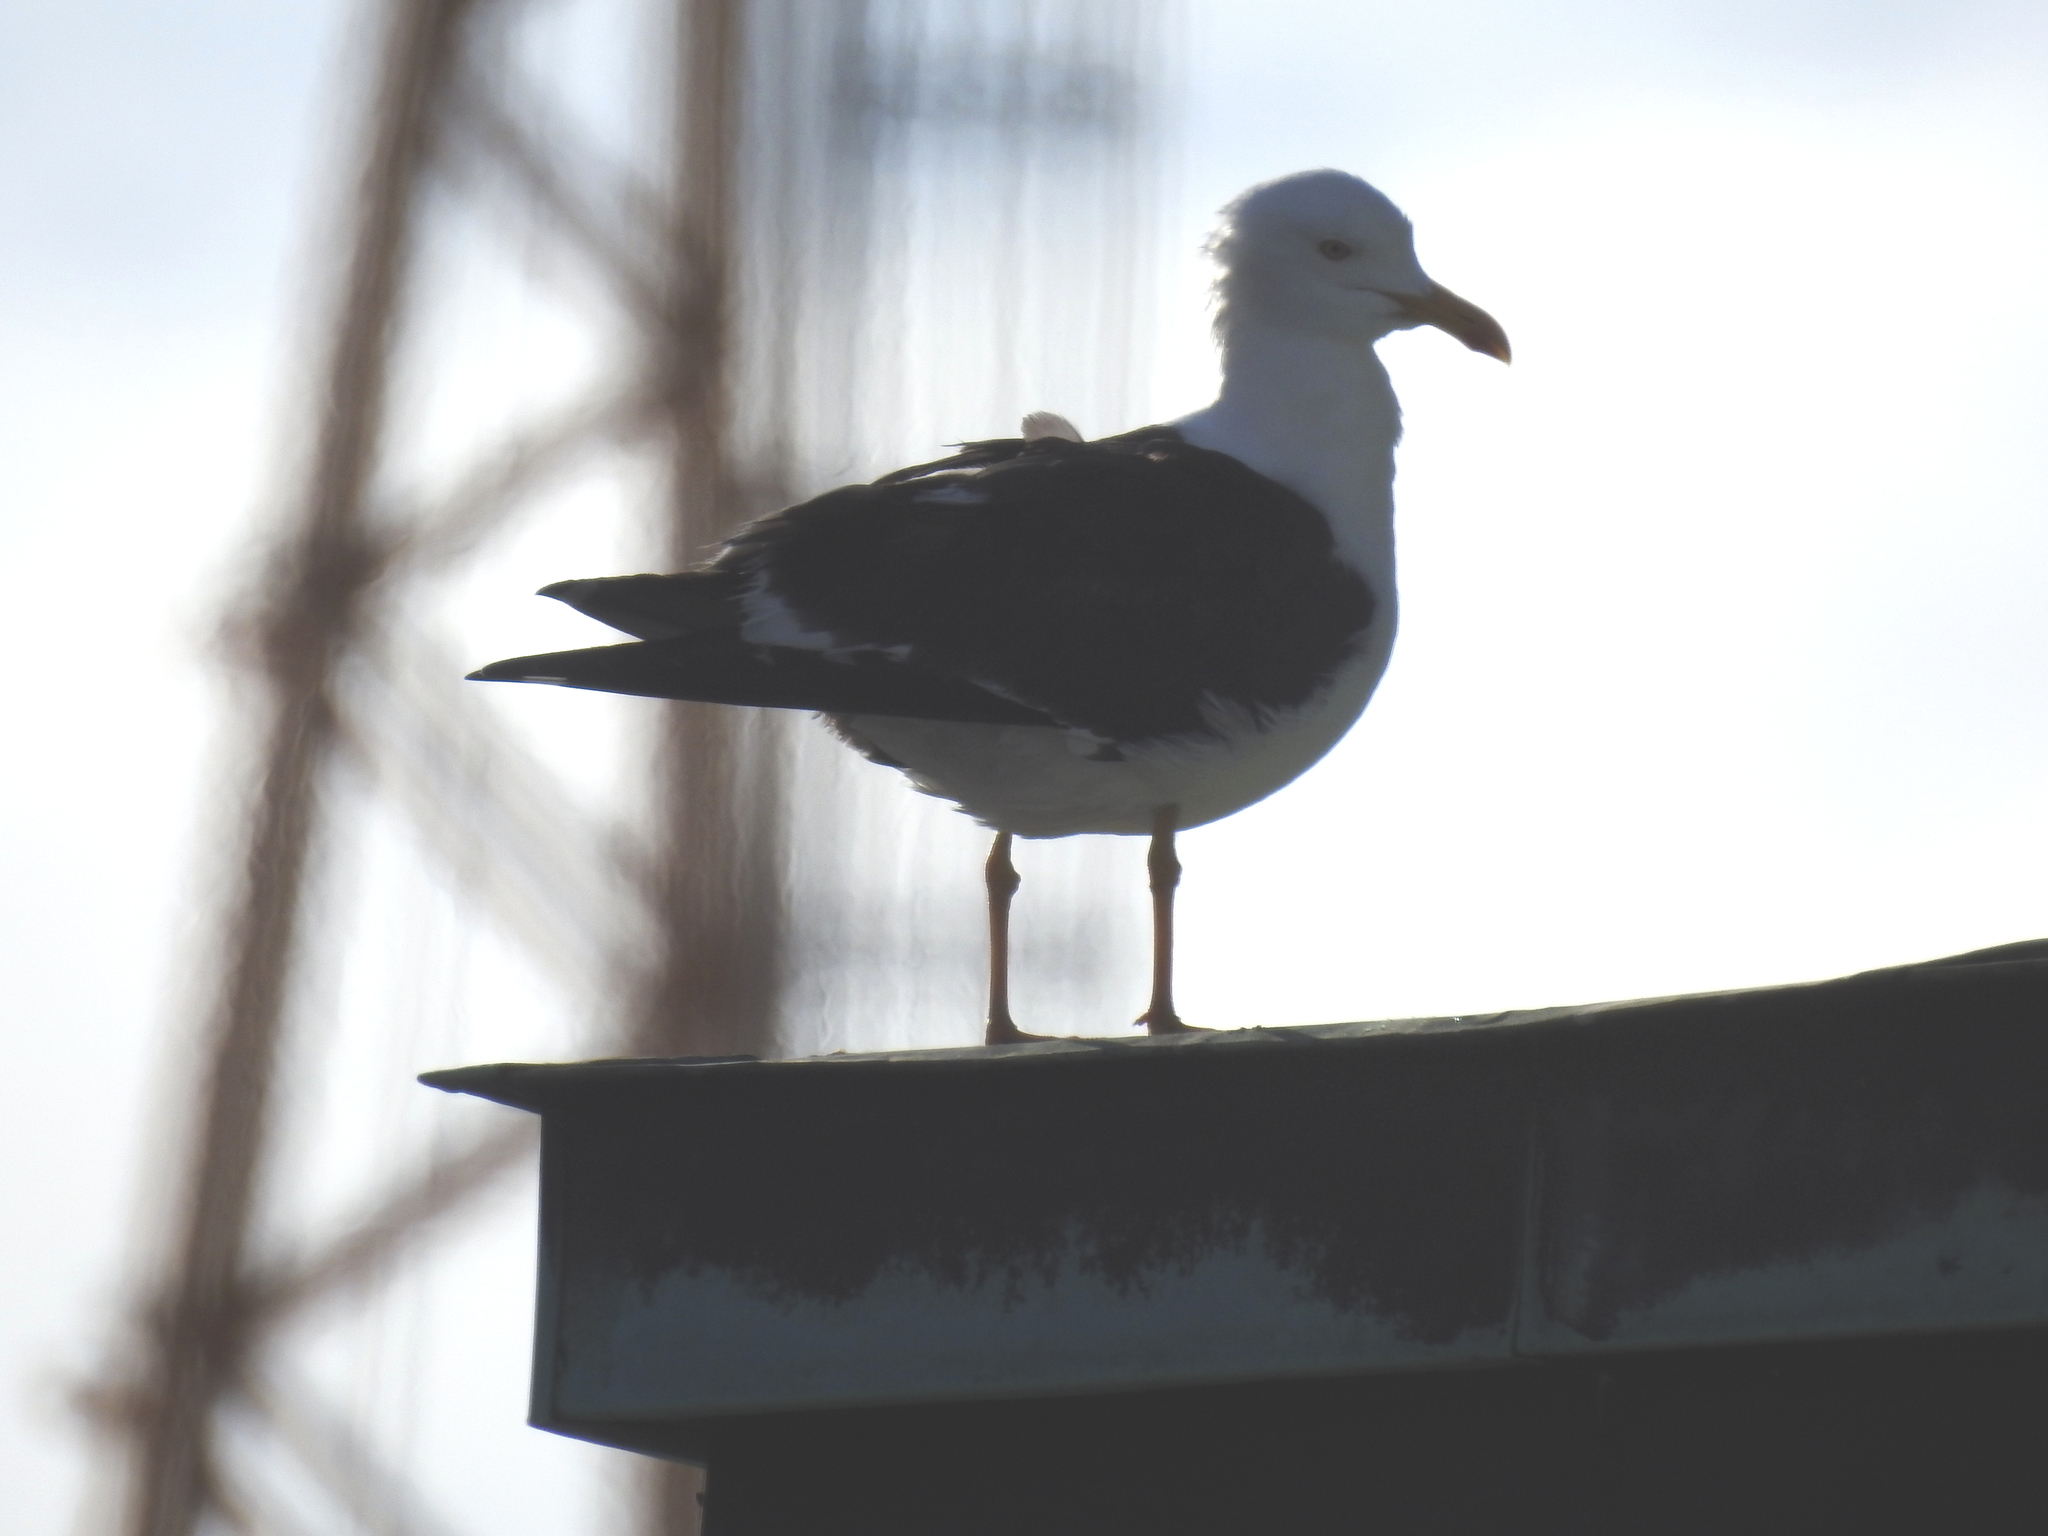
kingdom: Animalia
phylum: Chordata
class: Aves
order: Charadriiformes
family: Laridae
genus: Larus
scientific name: Larus fuscus
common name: Lesser black-backed gull
